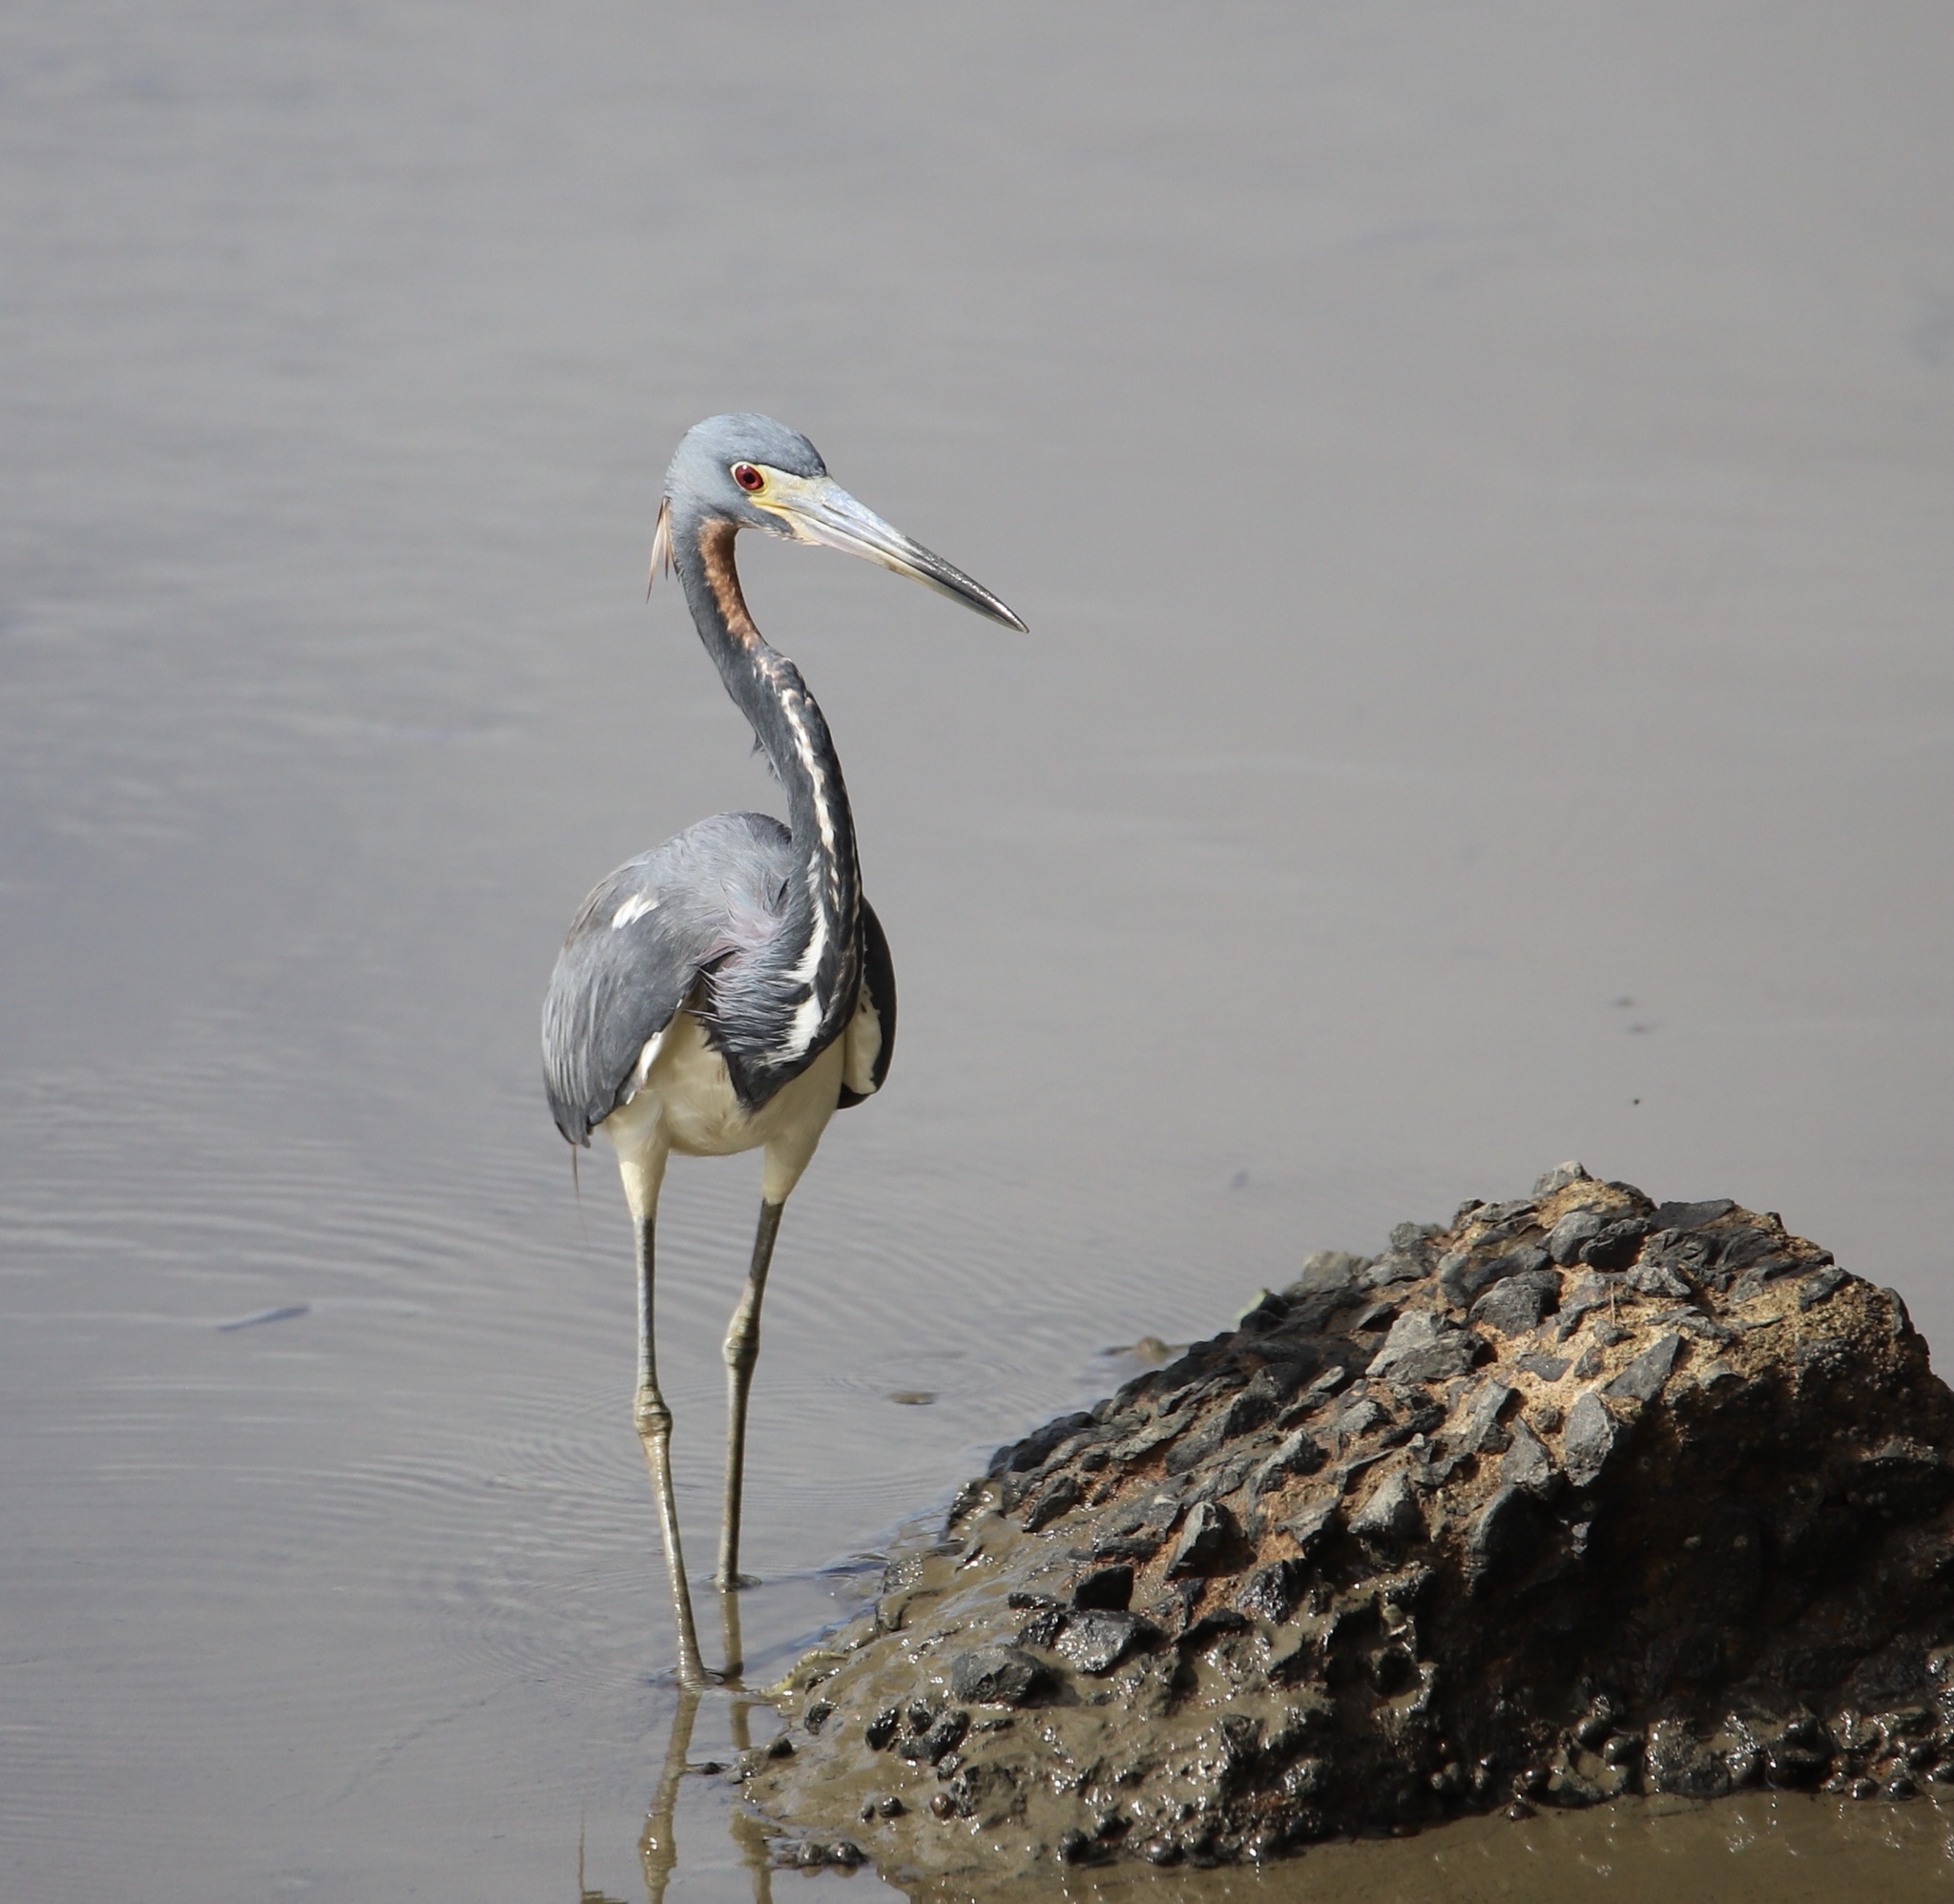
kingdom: Animalia
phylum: Chordata
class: Aves
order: Pelecaniformes
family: Ardeidae
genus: Egretta
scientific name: Egretta tricolor
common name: Tricolored heron
